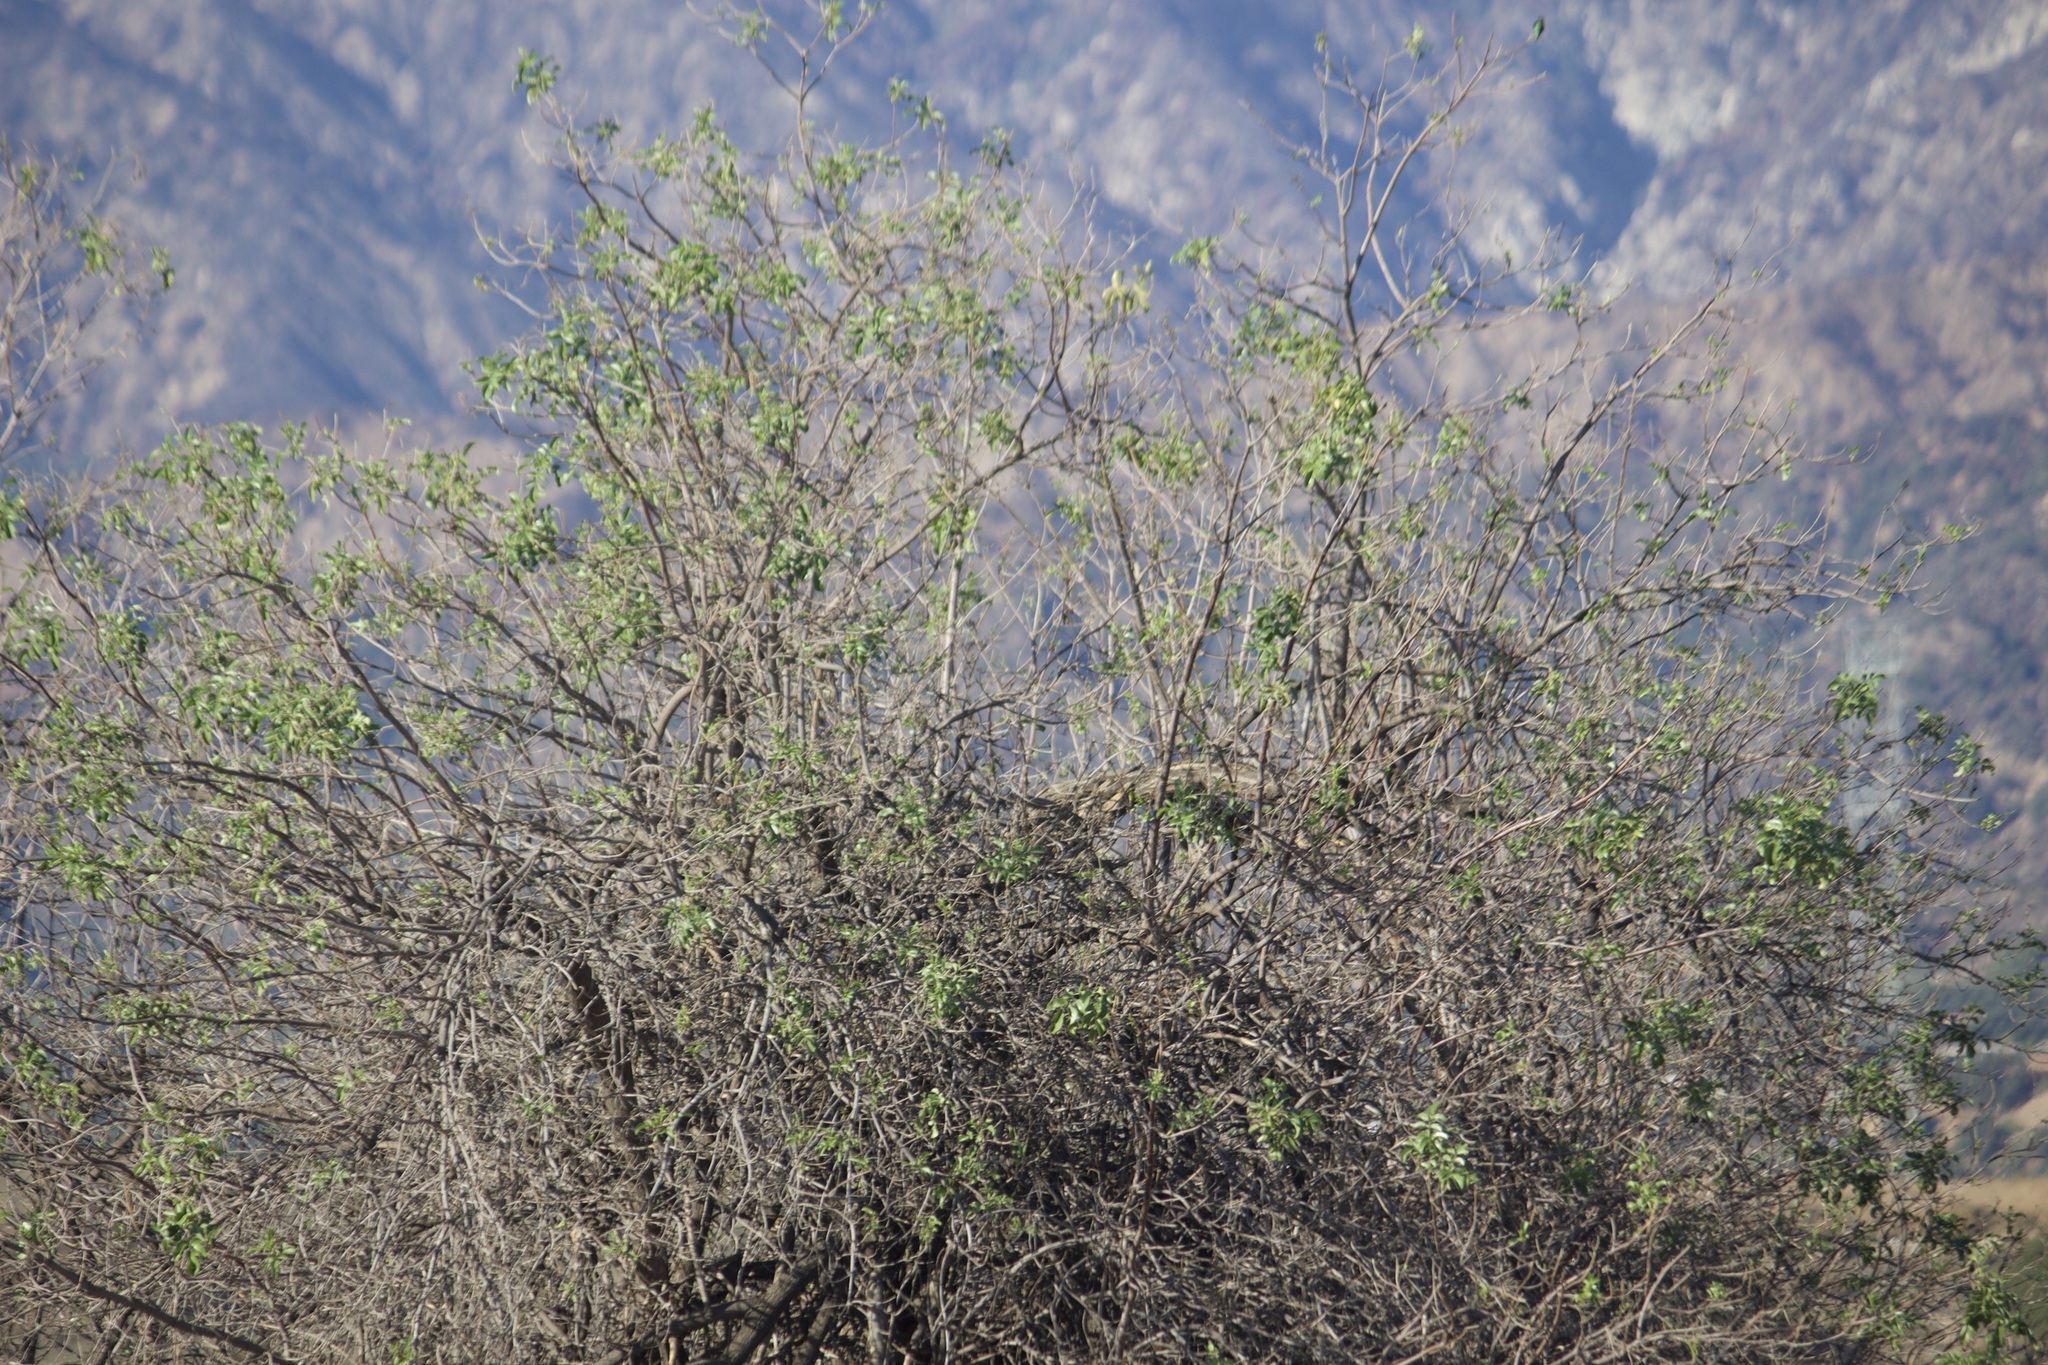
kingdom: Plantae
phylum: Tracheophyta
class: Magnoliopsida
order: Dipsacales
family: Viburnaceae
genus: Sambucus
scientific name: Sambucus cerulea
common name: Blue elder
